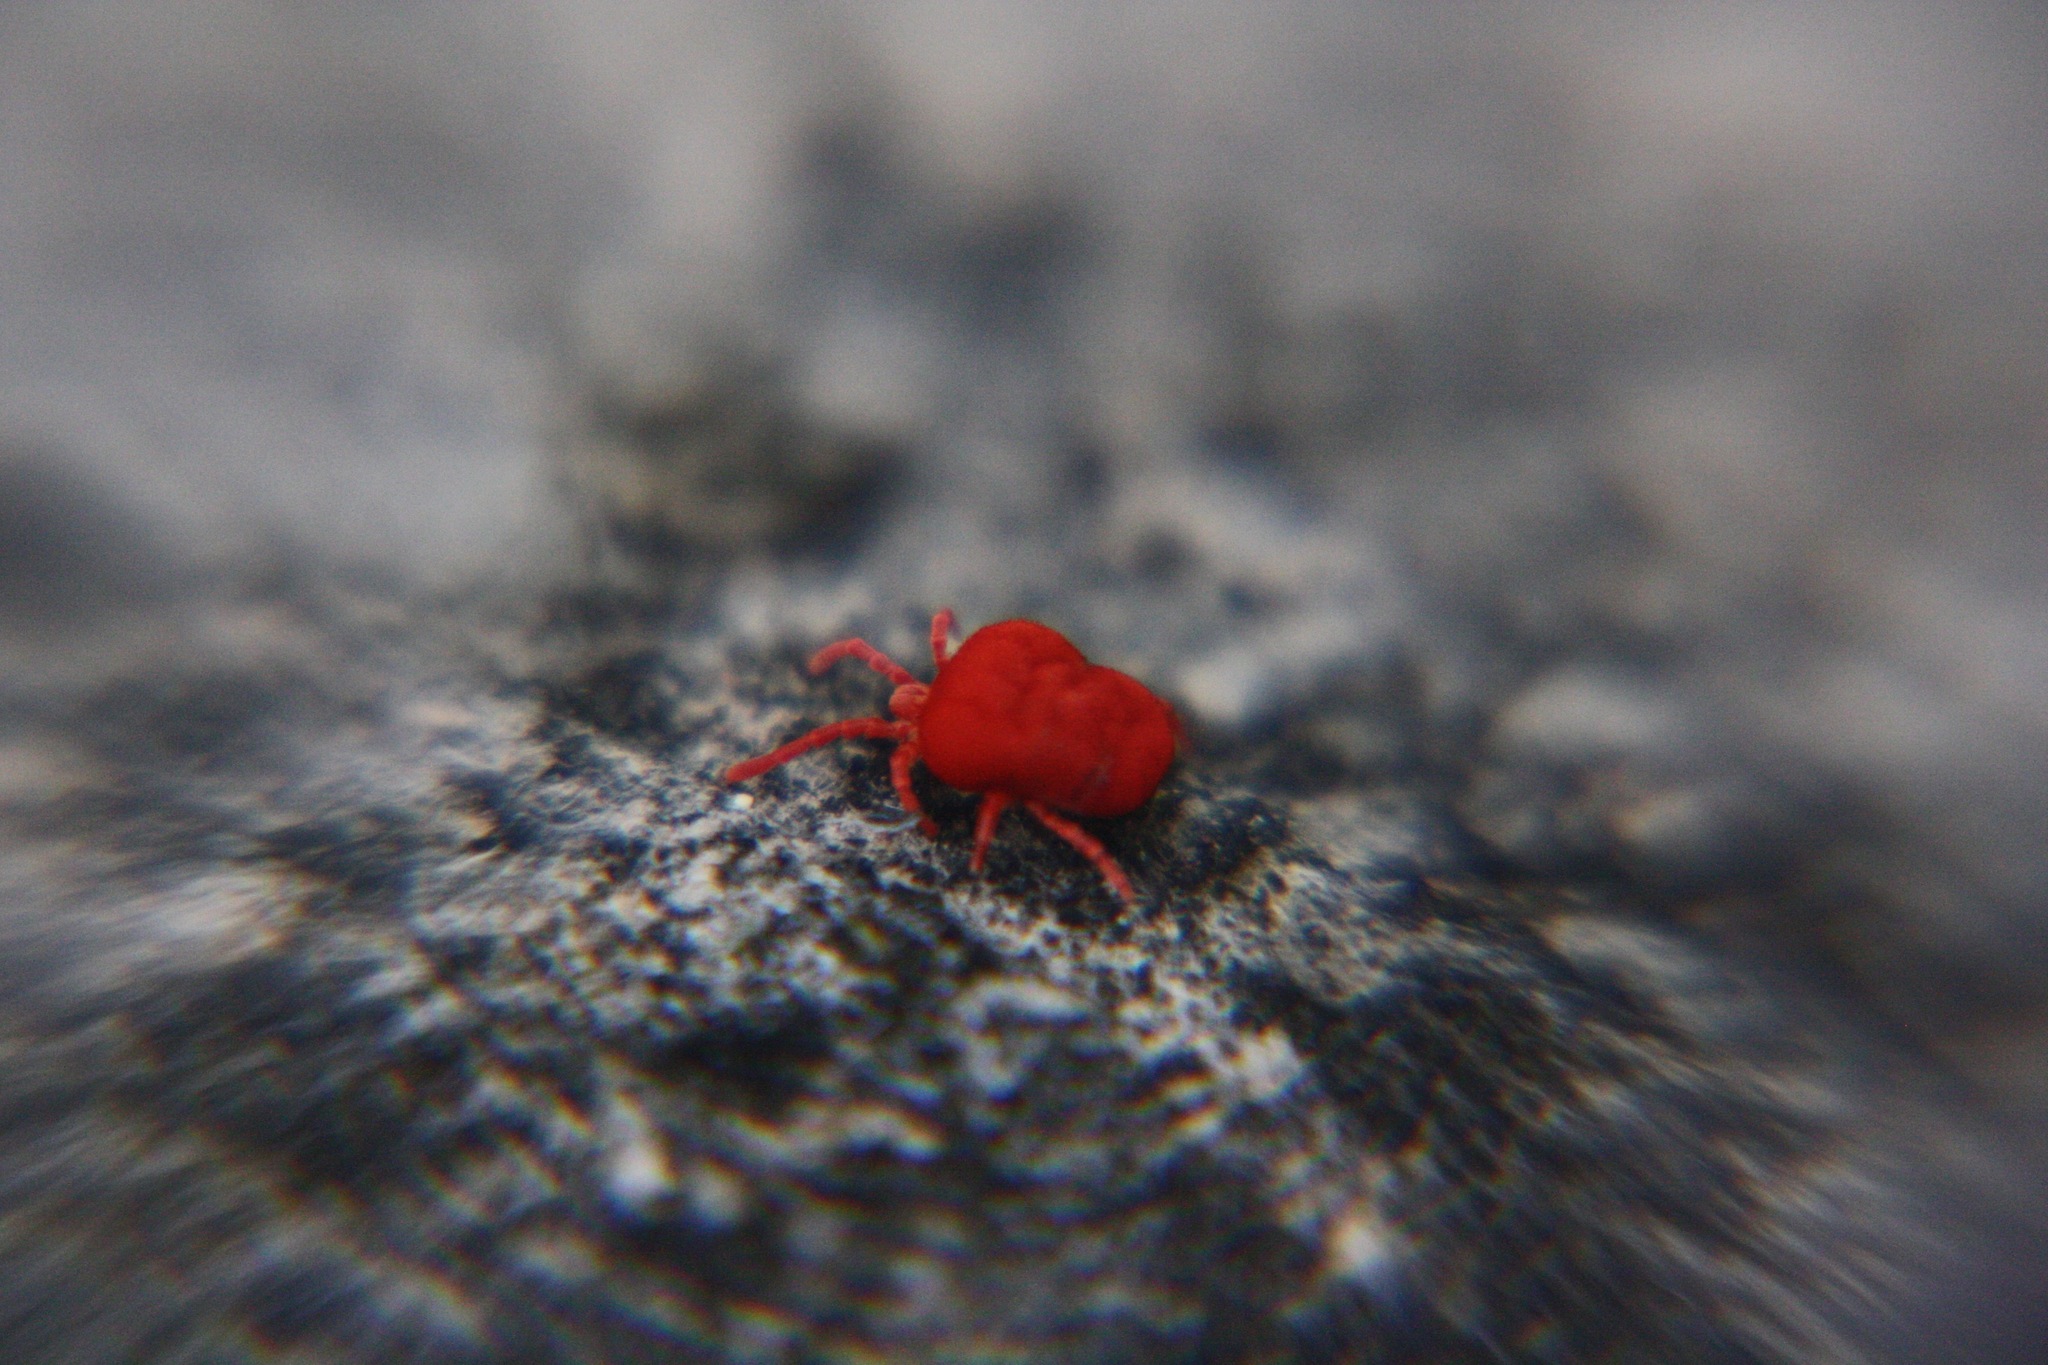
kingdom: Animalia
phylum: Arthropoda
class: Arachnida
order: Trombidiformes
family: Trombidiidae
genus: Trombidium
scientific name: Trombidium
